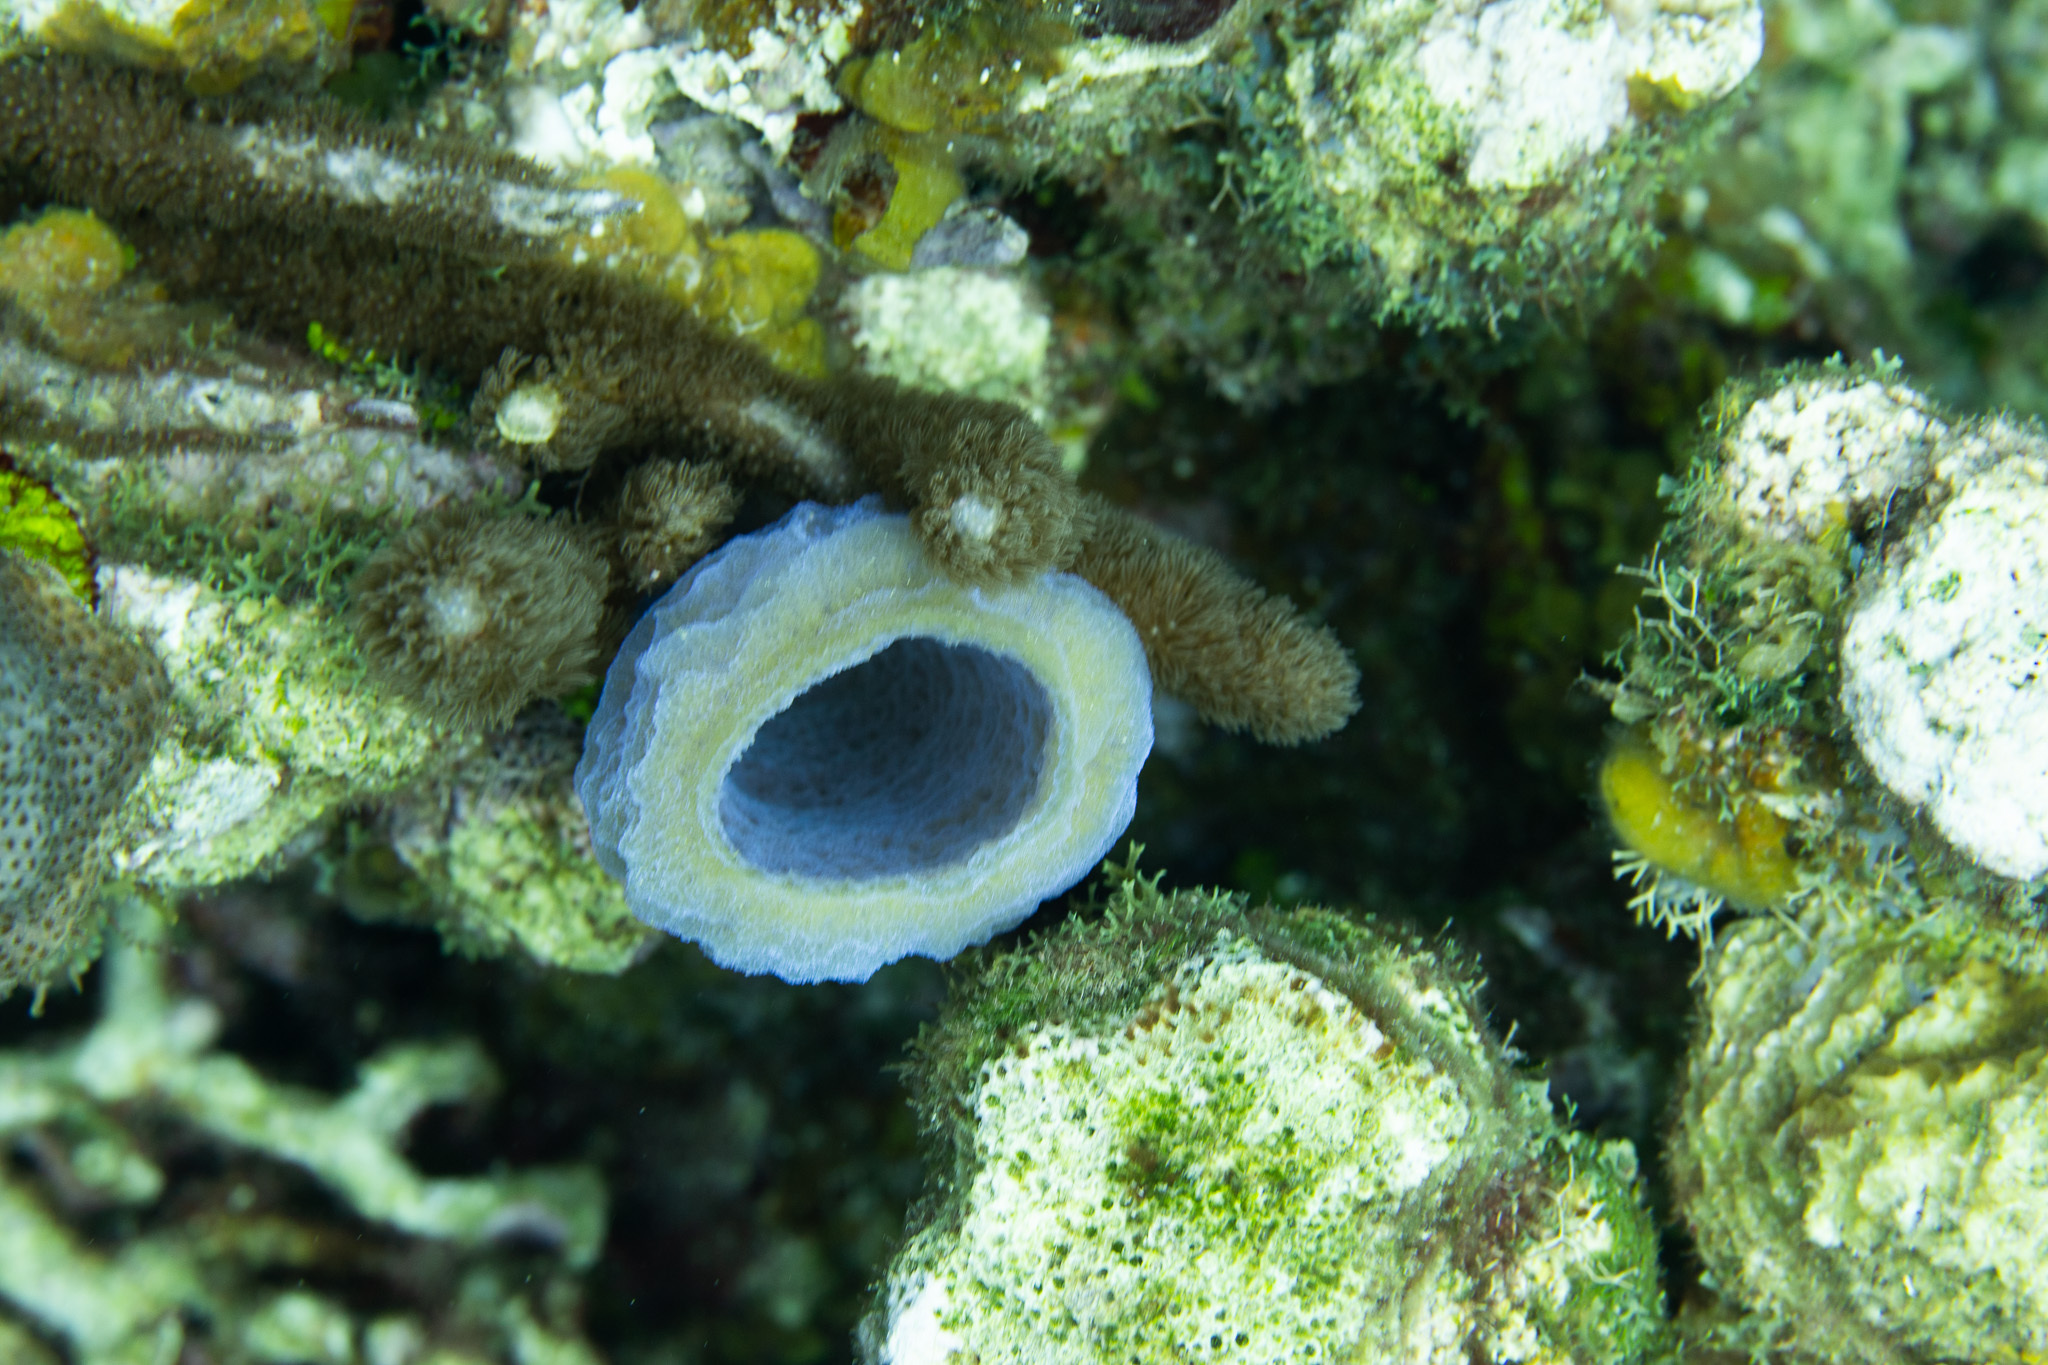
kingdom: Animalia
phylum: Porifera
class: Demospongiae
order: Haplosclerida
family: Callyspongiidae
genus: Callyspongia
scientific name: Callyspongia plicifera
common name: Azure vase sponge
